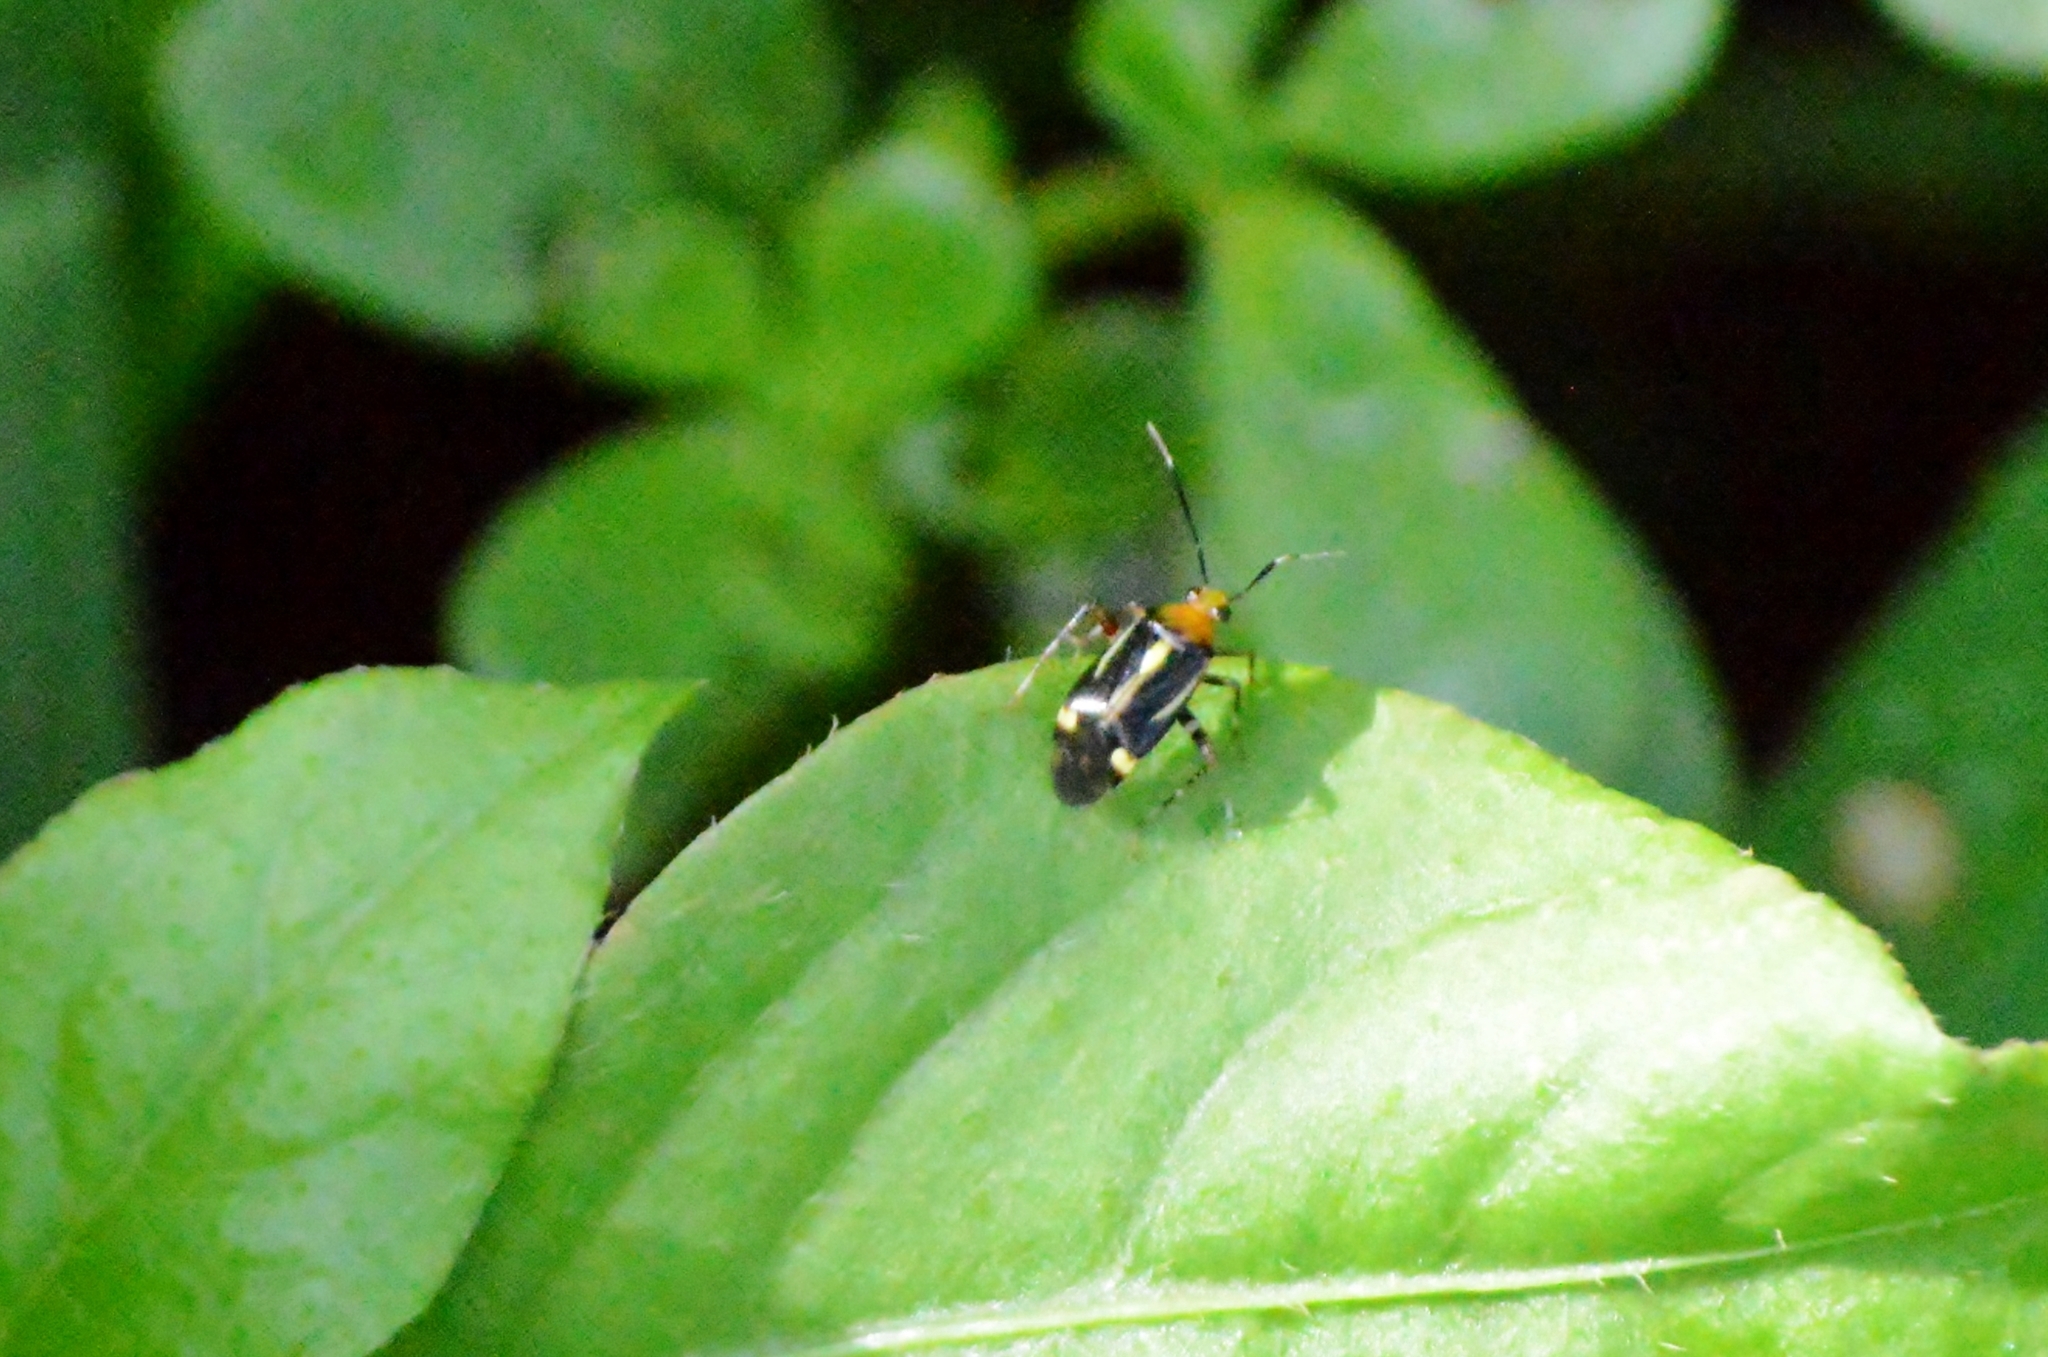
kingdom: Animalia
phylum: Arthropoda
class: Insecta
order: Hemiptera
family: Miridae
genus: Horciasinus
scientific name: Horciasinus signoreti
